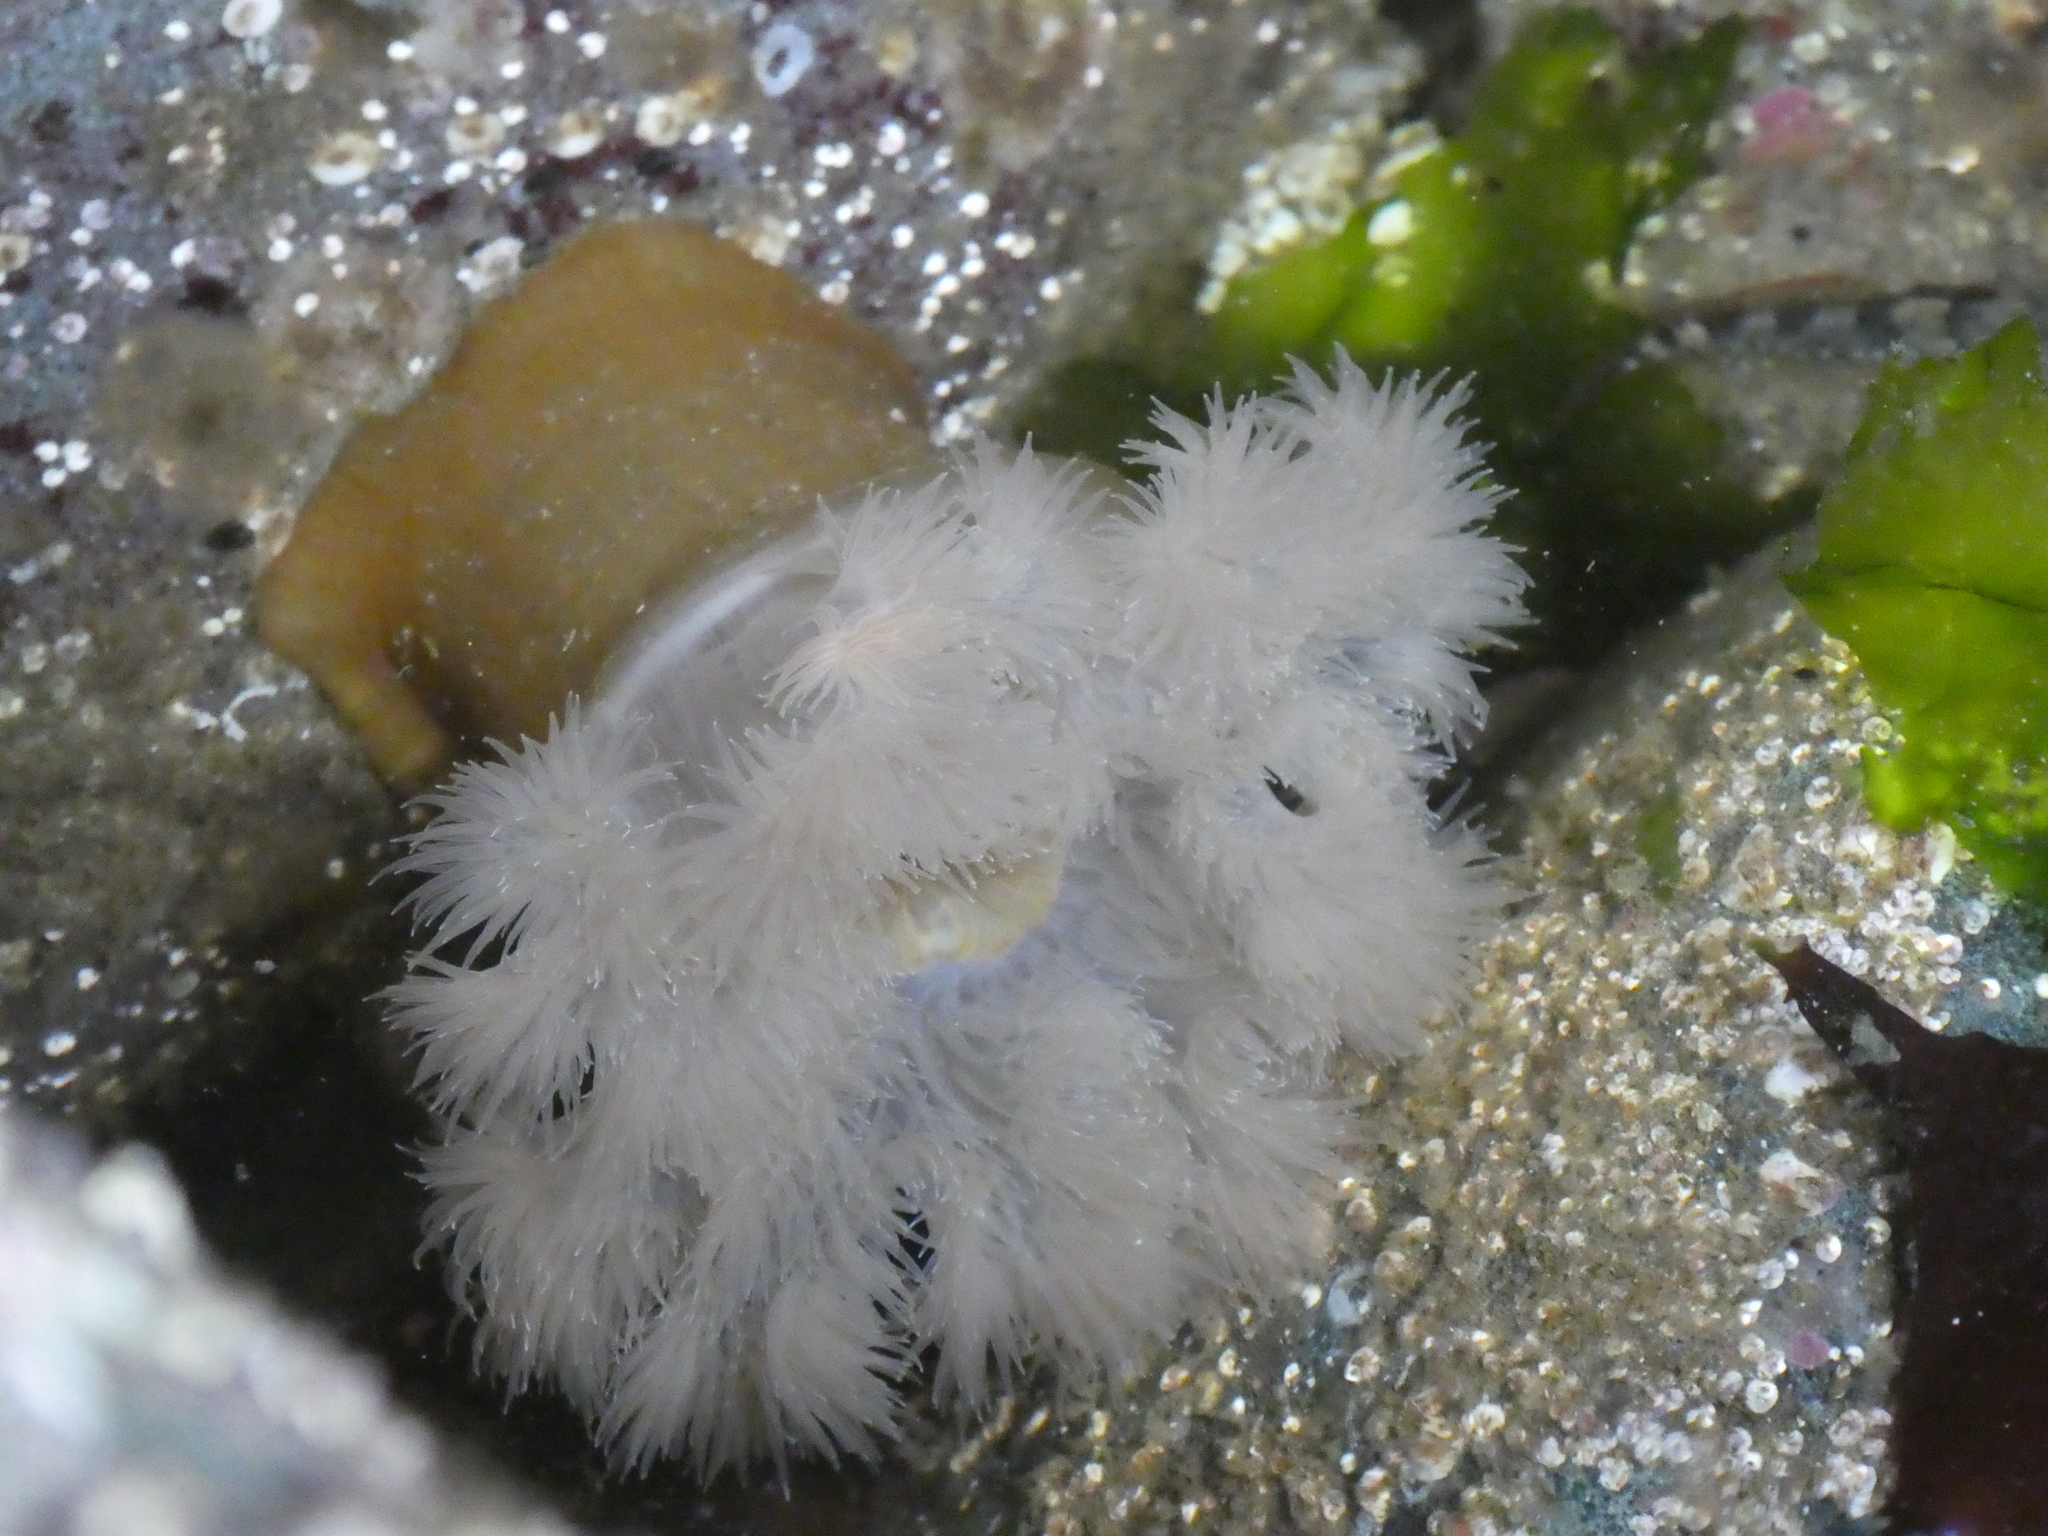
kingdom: Animalia
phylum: Cnidaria
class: Anthozoa
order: Actiniaria
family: Metridiidae
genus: Metridium
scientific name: Metridium senile
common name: Clonal plumose anemone
